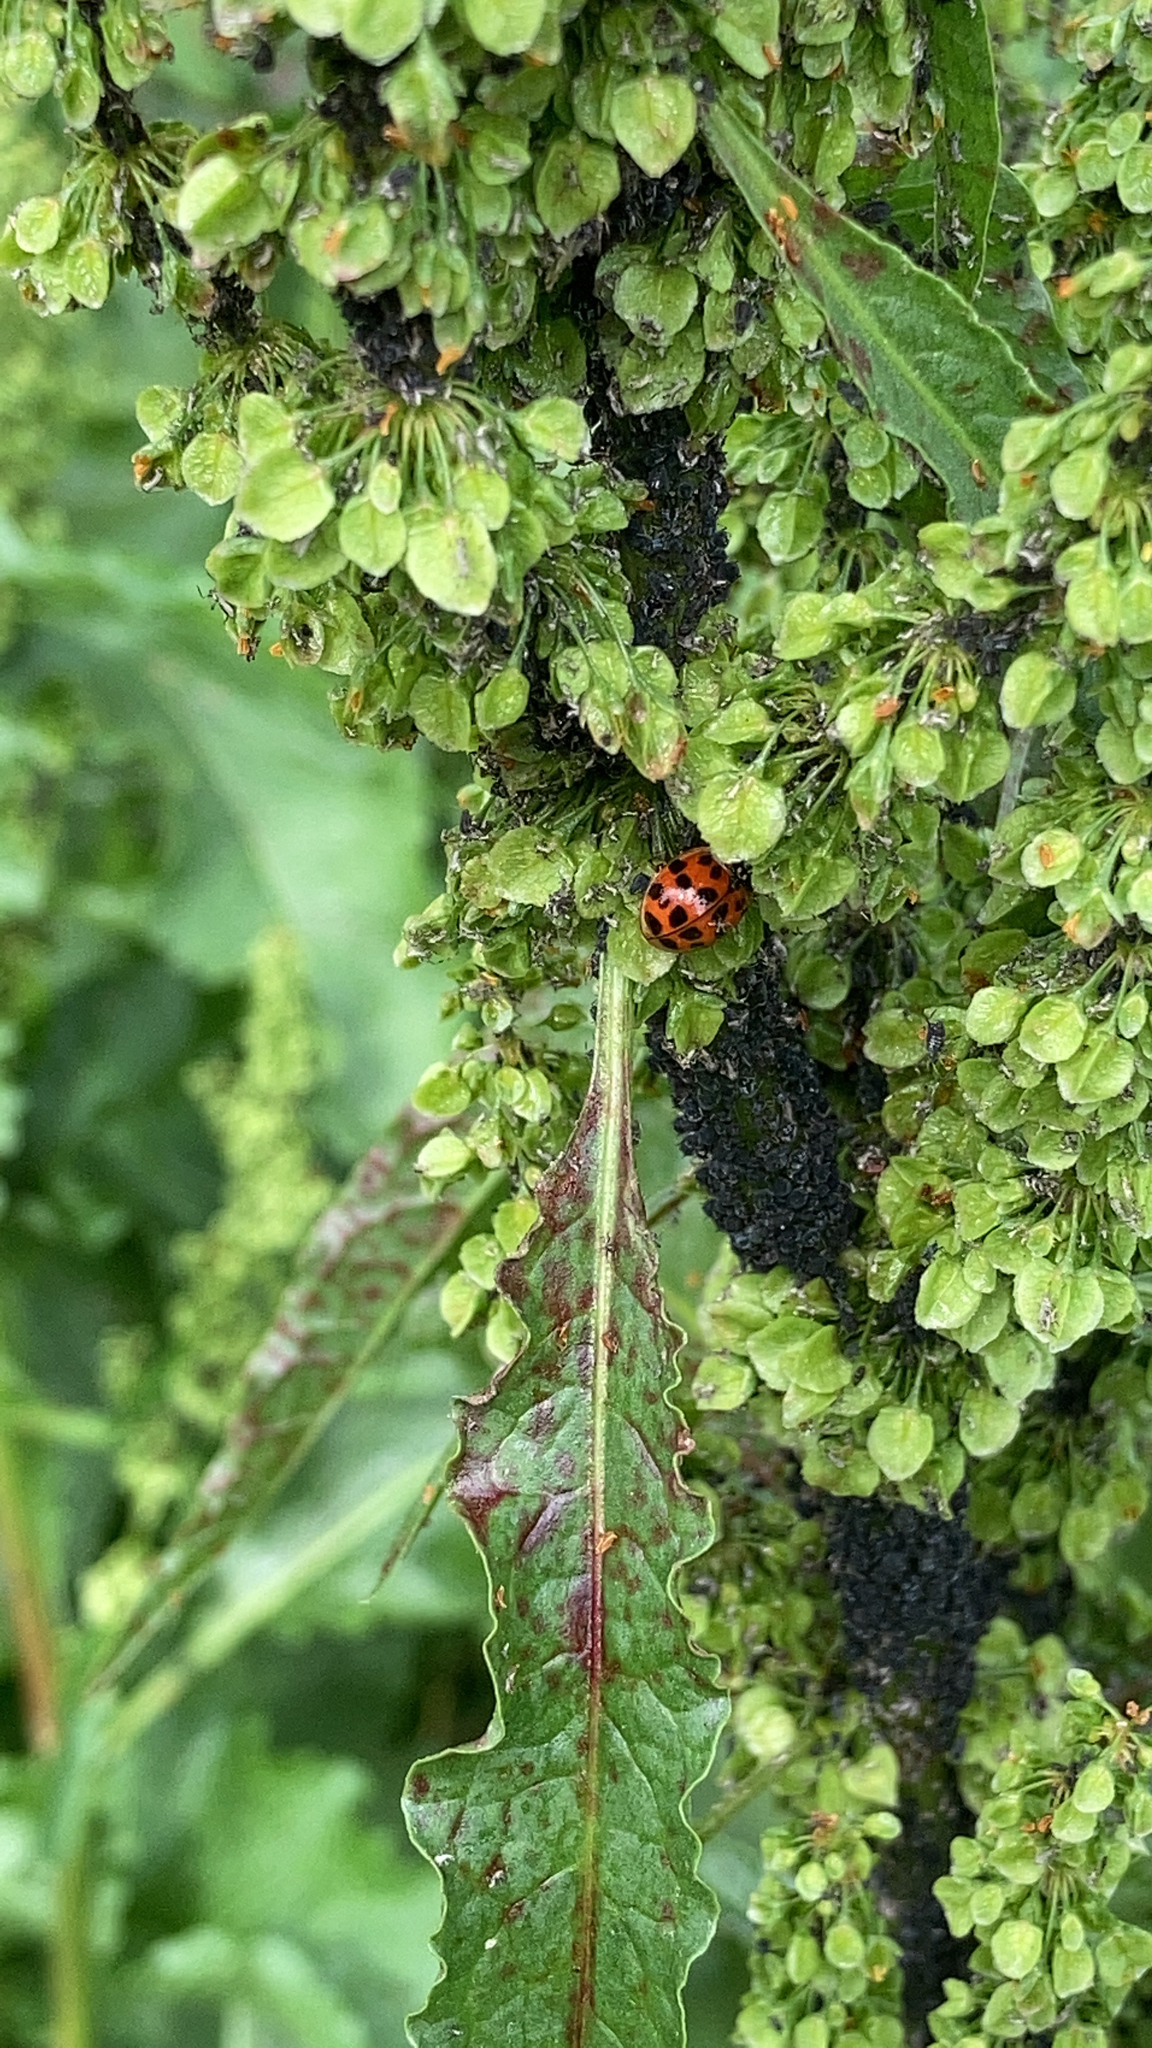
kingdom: Animalia
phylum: Arthropoda
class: Insecta
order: Coleoptera
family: Coccinellidae
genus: Harmonia
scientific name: Harmonia axyridis
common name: Harlequin ladybird
